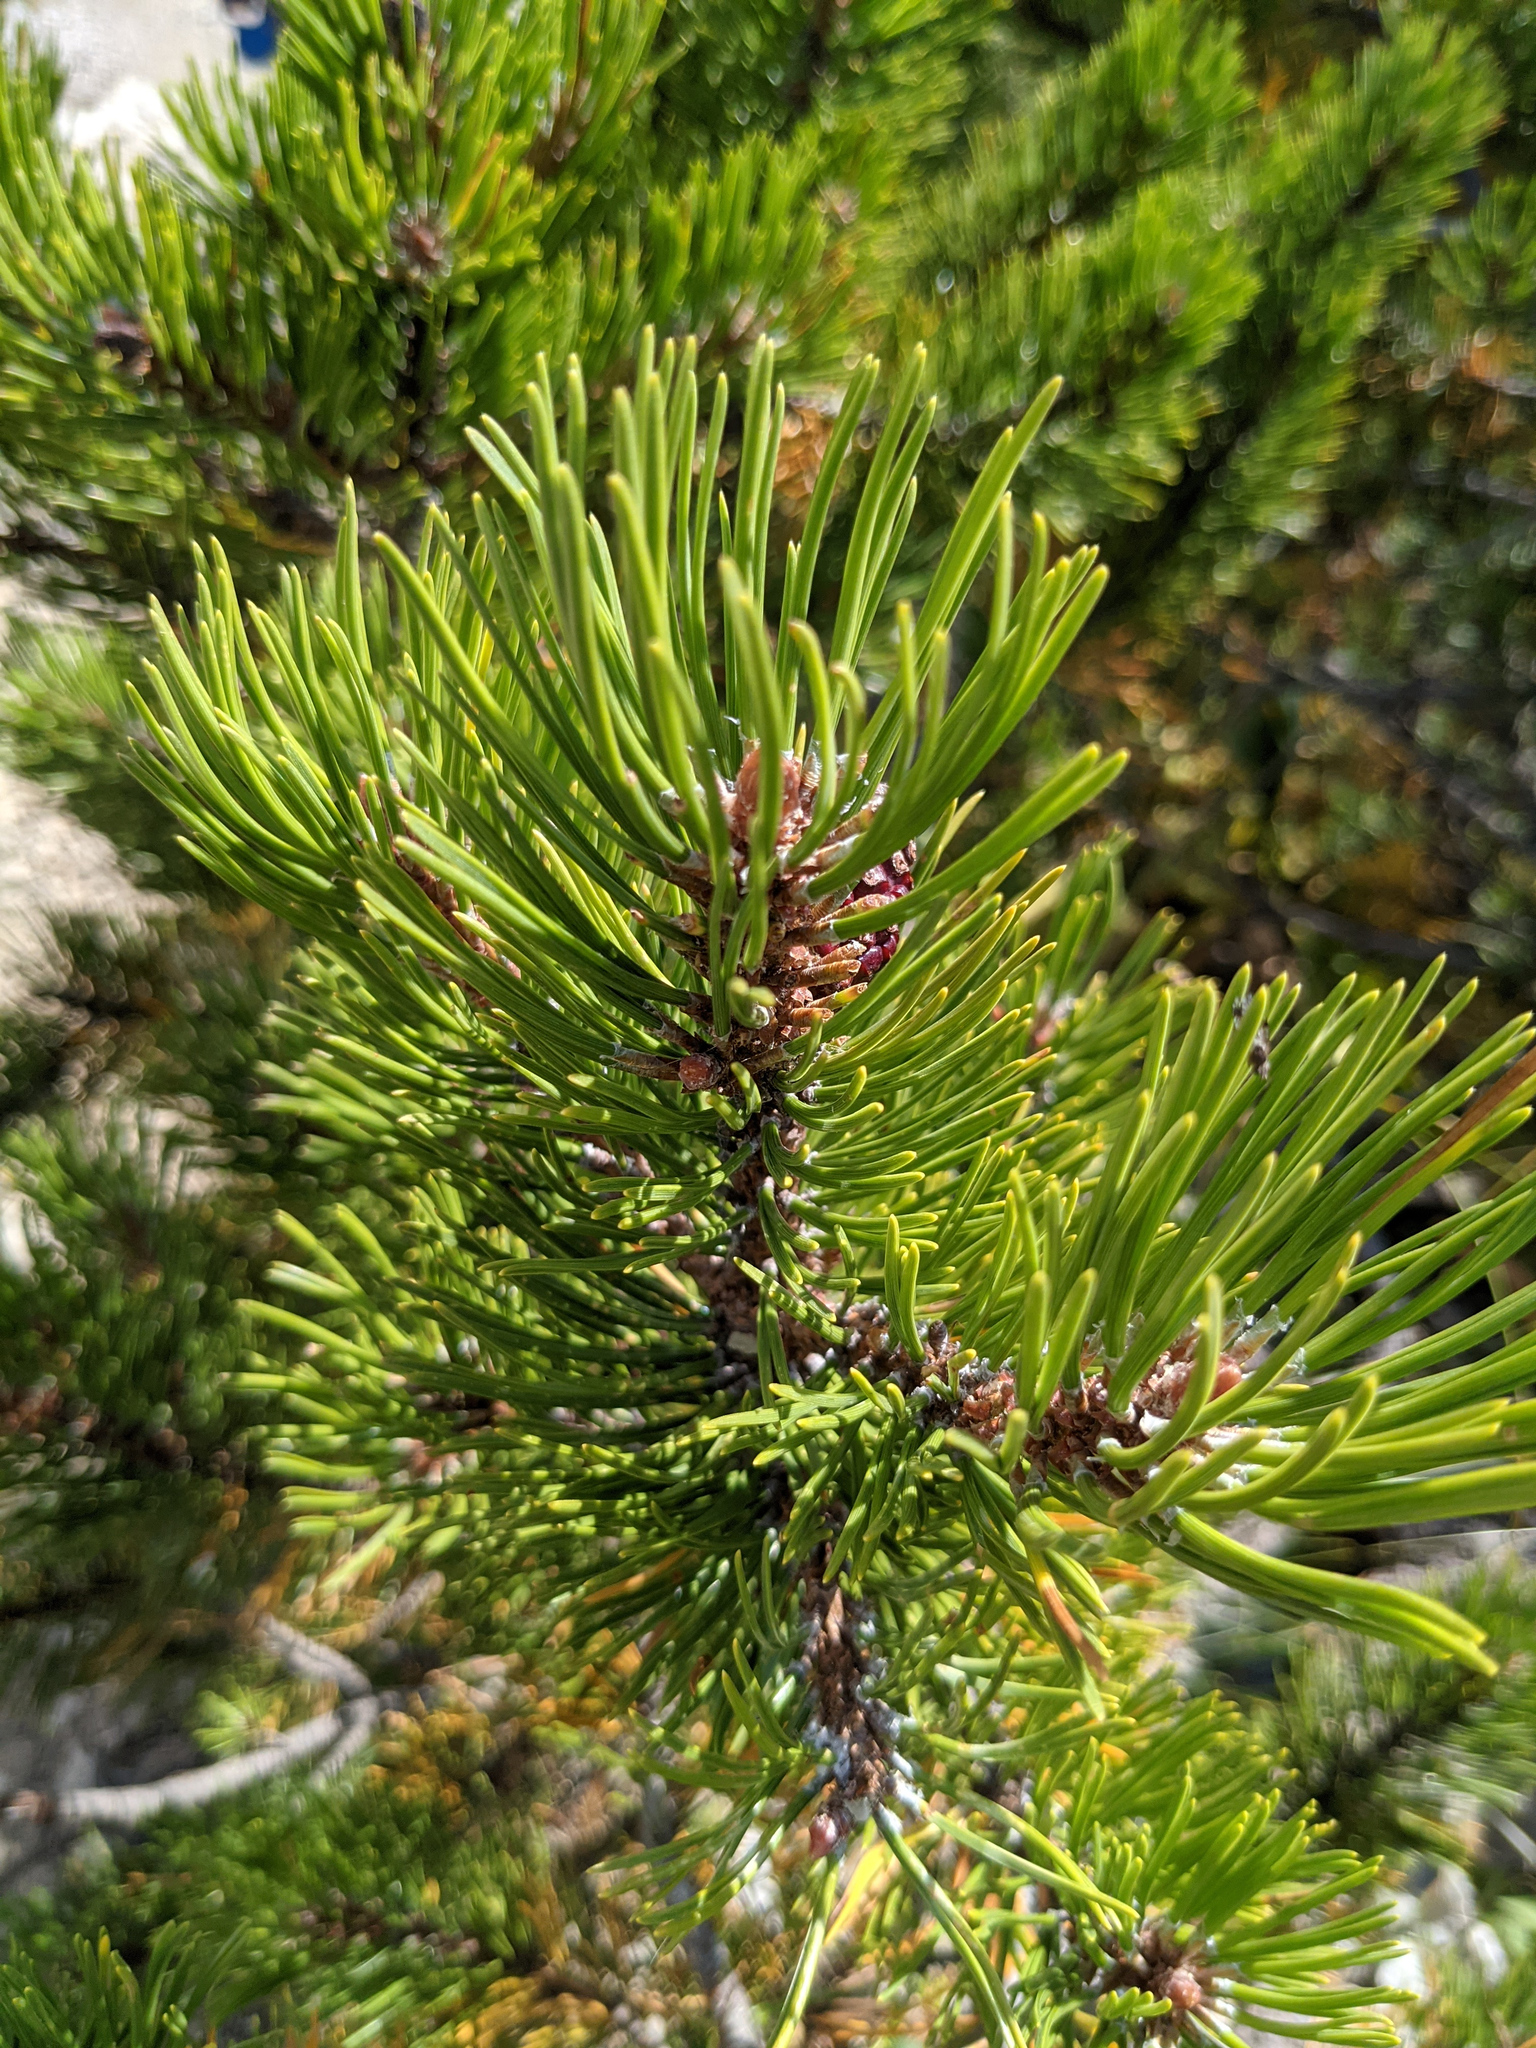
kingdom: Plantae
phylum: Tracheophyta
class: Pinopsida
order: Pinales
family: Pinaceae
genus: Pinus
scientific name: Pinus mugo
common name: Mugo pine
